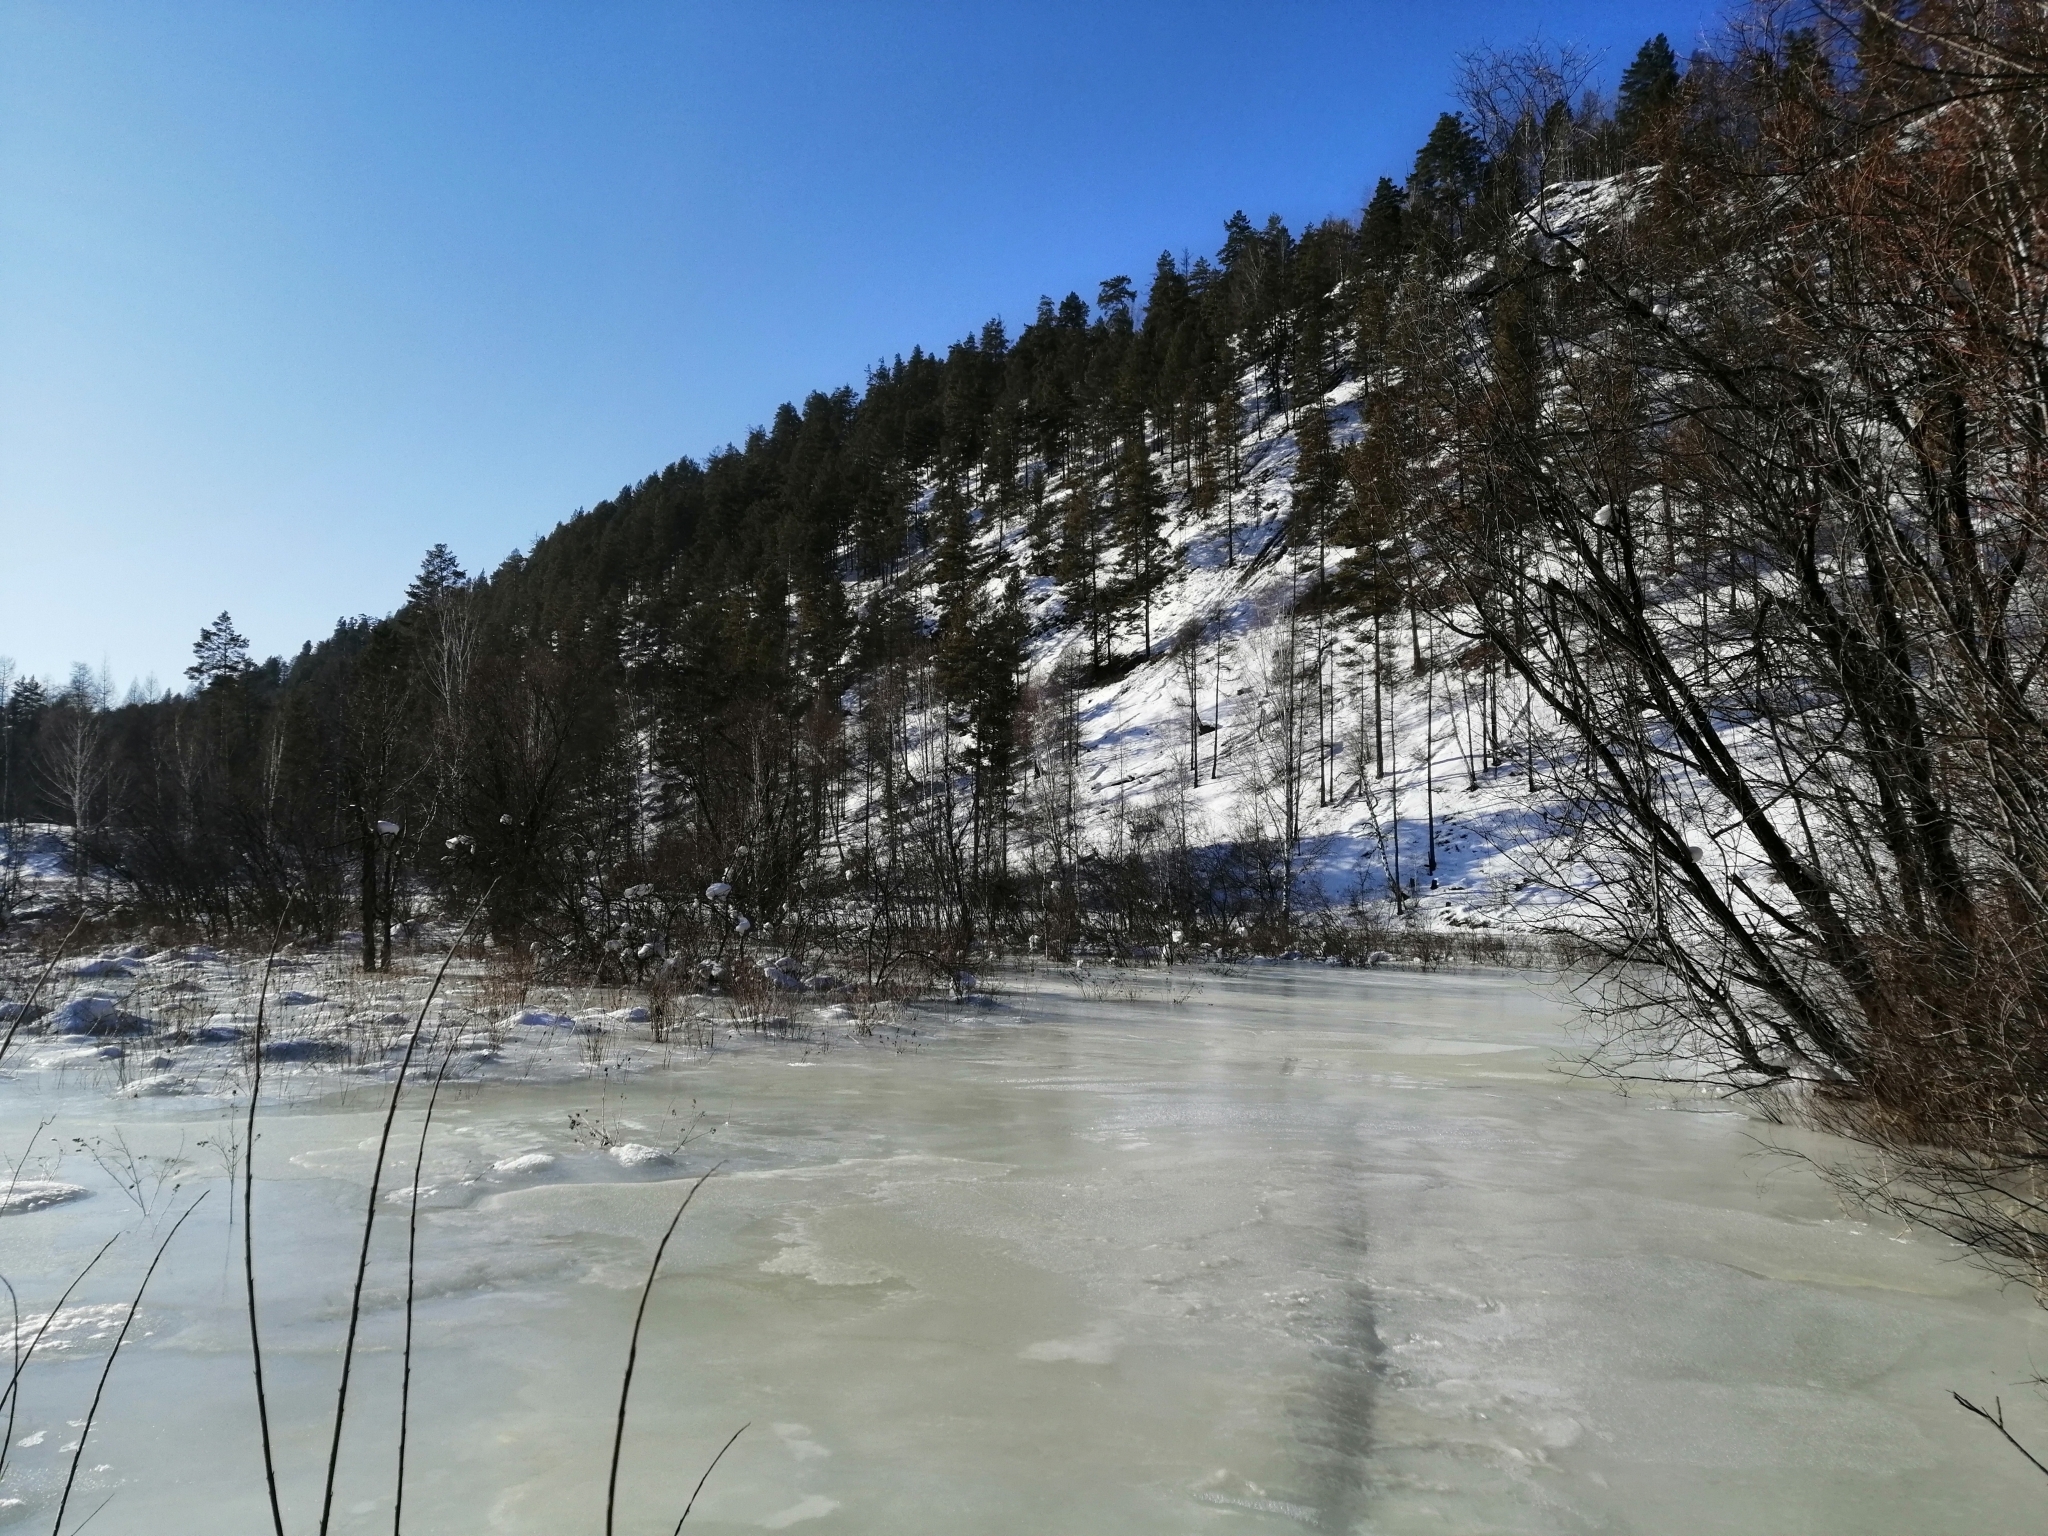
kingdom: Plantae
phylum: Tracheophyta
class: Pinopsida
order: Pinales
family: Pinaceae
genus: Pinus
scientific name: Pinus sylvestris
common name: Scots pine
